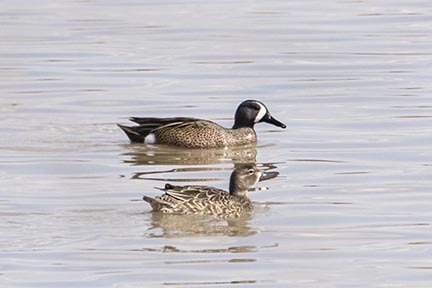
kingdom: Animalia
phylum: Chordata
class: Aves
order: Anseriformes
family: Anatidae
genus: Spatula
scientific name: Spatula discors
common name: Blue-winged teal
